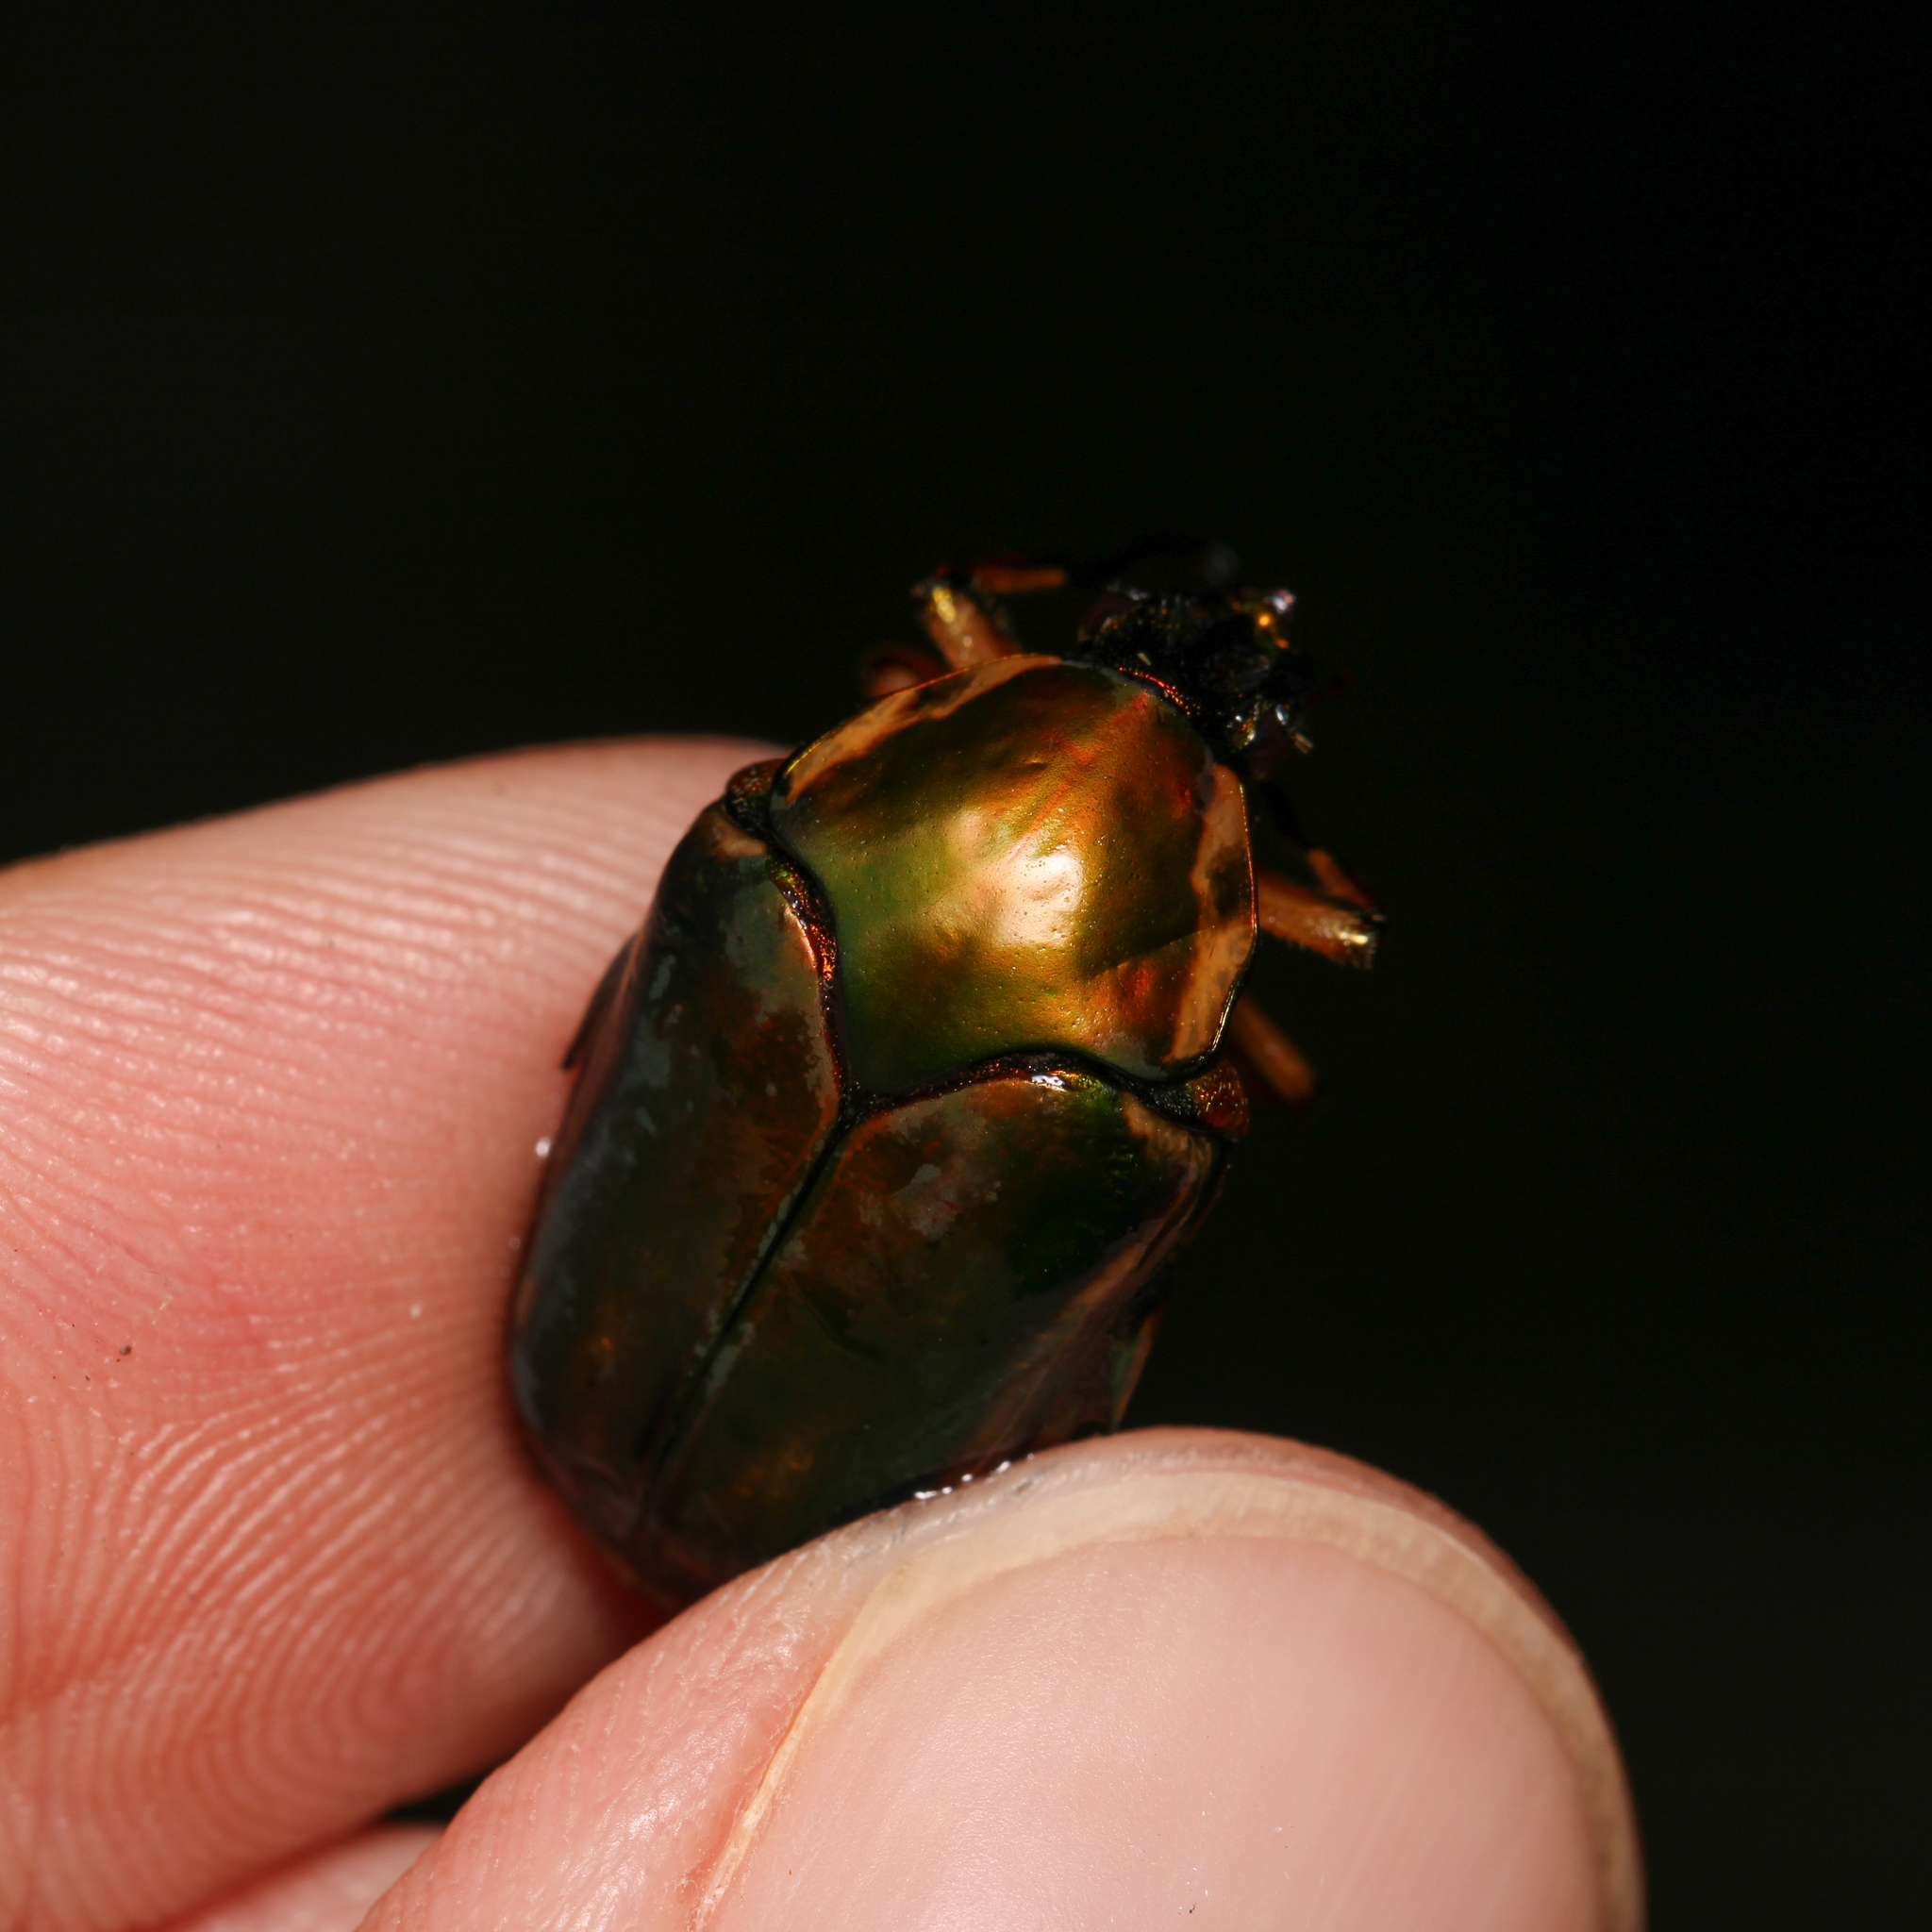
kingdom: Animalia
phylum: Arthropoda
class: Insecta
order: Coleoptera
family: Scarabaeidae
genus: Cotinis
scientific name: Cotinis nitida
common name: Common green june beetle
